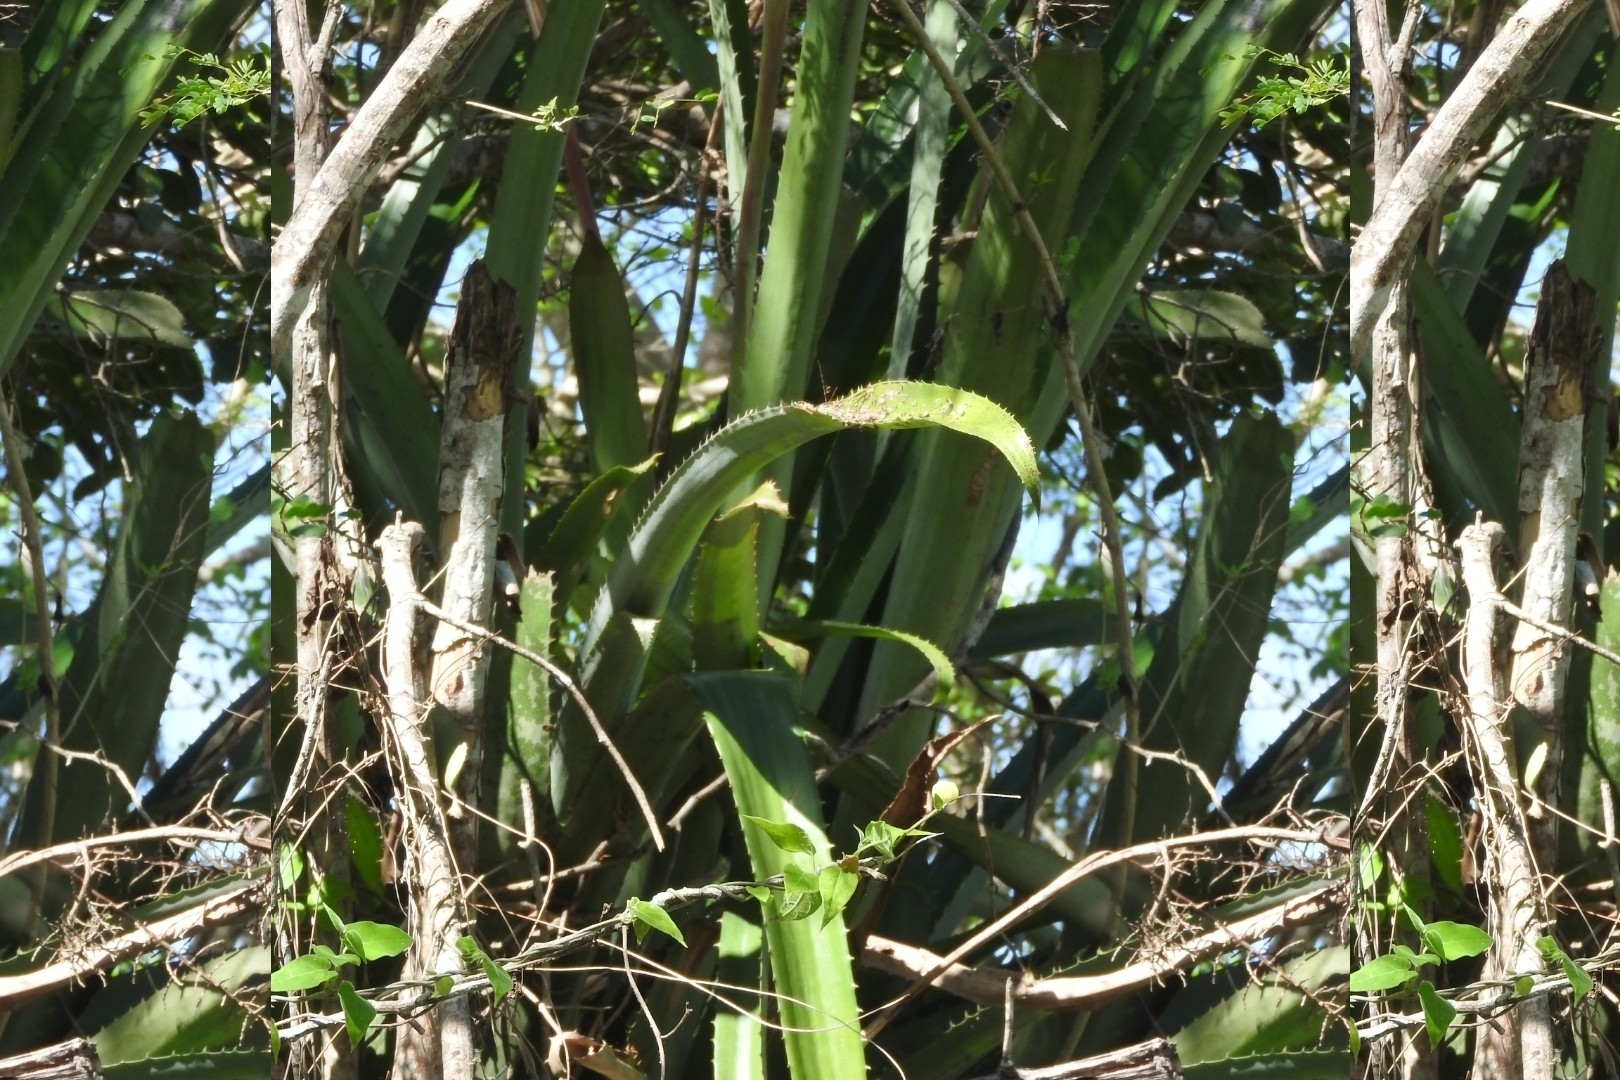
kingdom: Plantae
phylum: Tracheophyta
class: Liliopsida
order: Poales
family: Bromeliaceae
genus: Aechmea
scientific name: Aechmea bracteata
